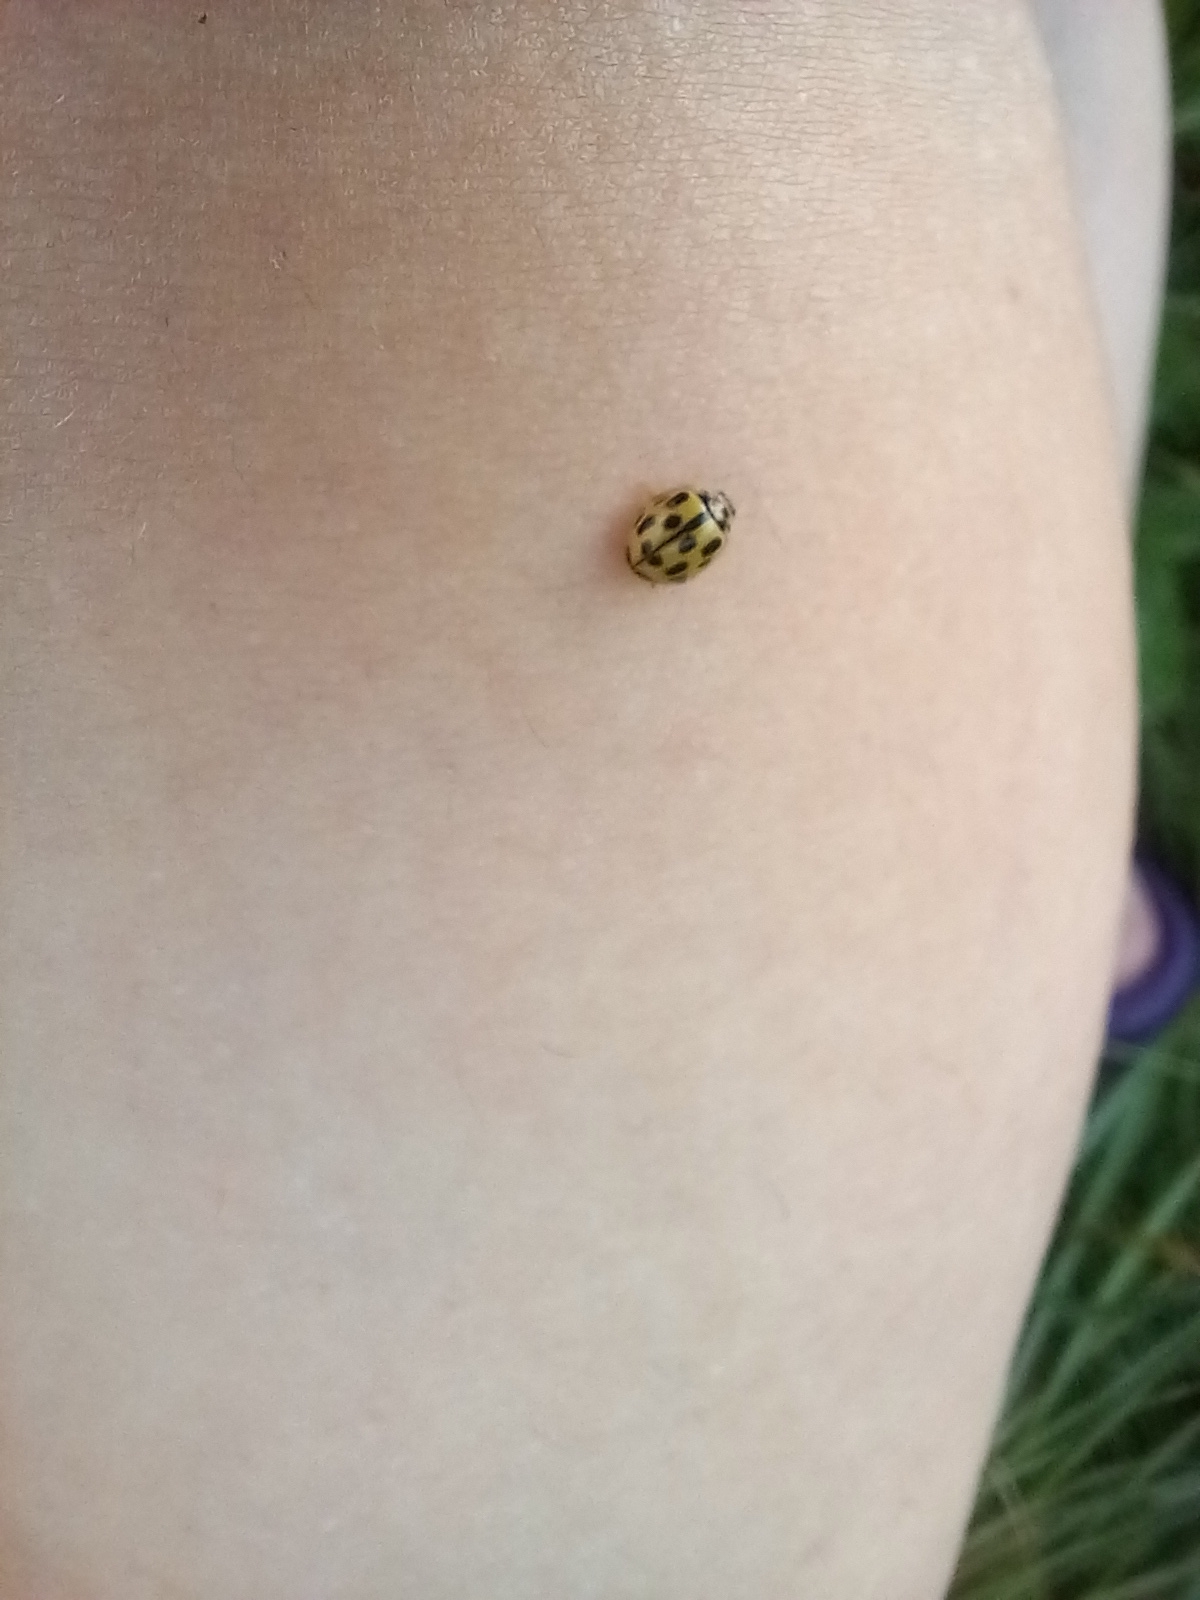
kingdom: Animalia
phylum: Arthropoda
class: Insecta
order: Coleoptera
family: Coccinellidae
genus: Propylaea
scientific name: Propylaea quatuordecimpunctata
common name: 14-spotted ladybird beetle
